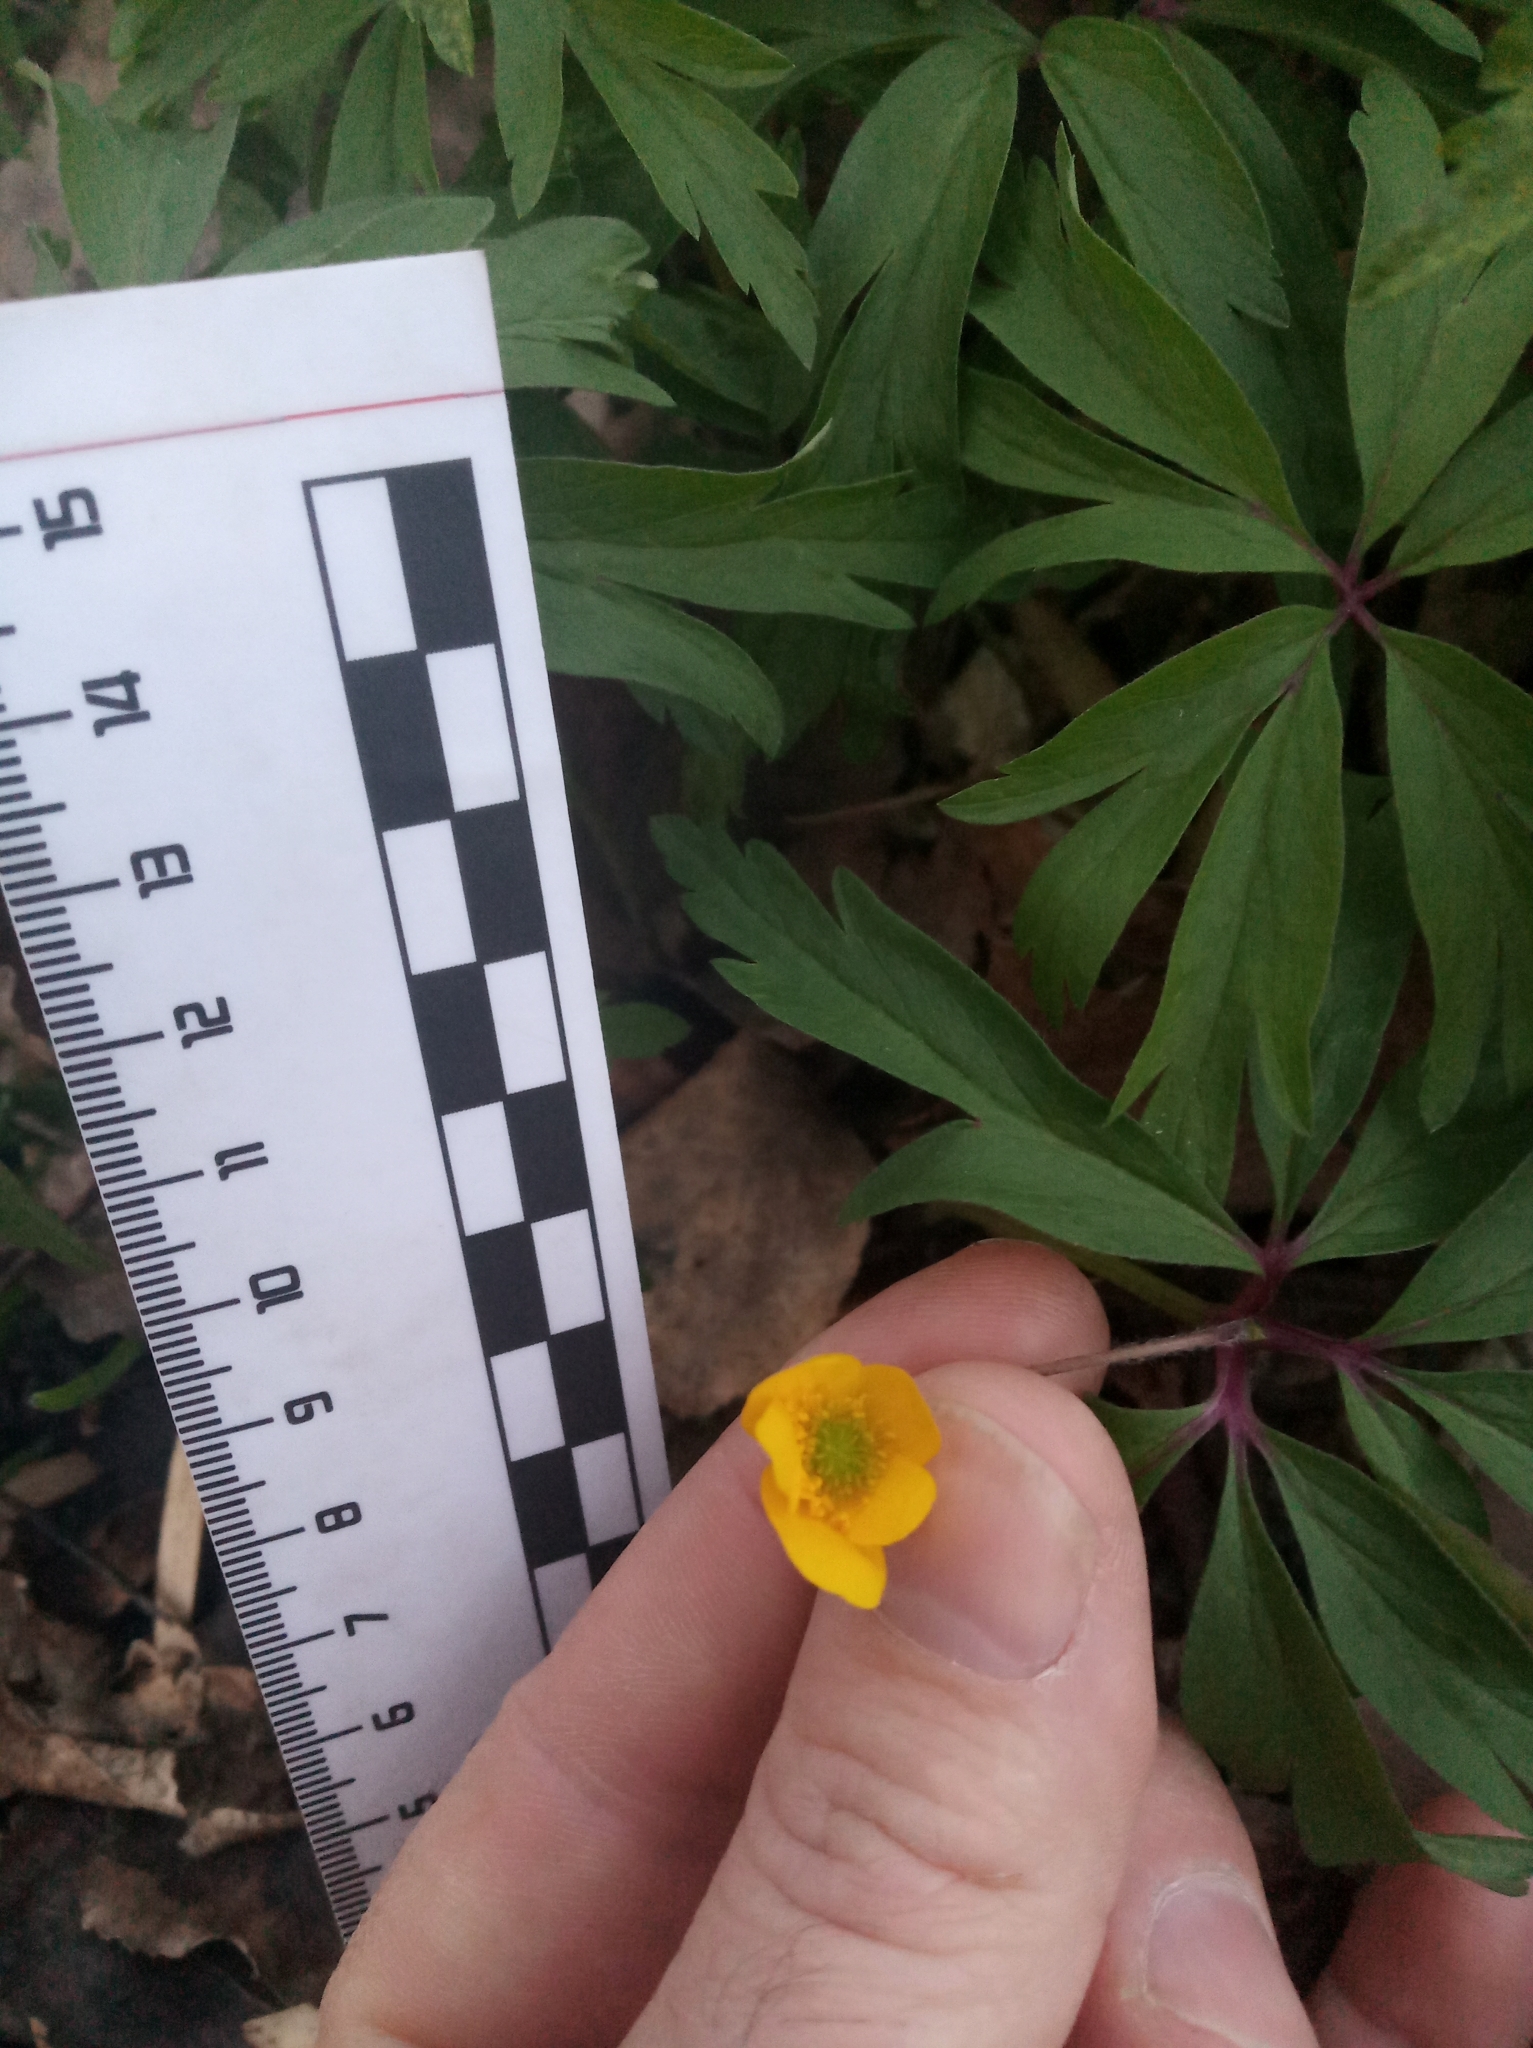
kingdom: Plantae
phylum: Tracheophyta
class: Magnoliopsida
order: Ranunculales
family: Ranunculaceae
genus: Anemone
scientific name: Anemone ranunculoides
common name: Yellow anemone
